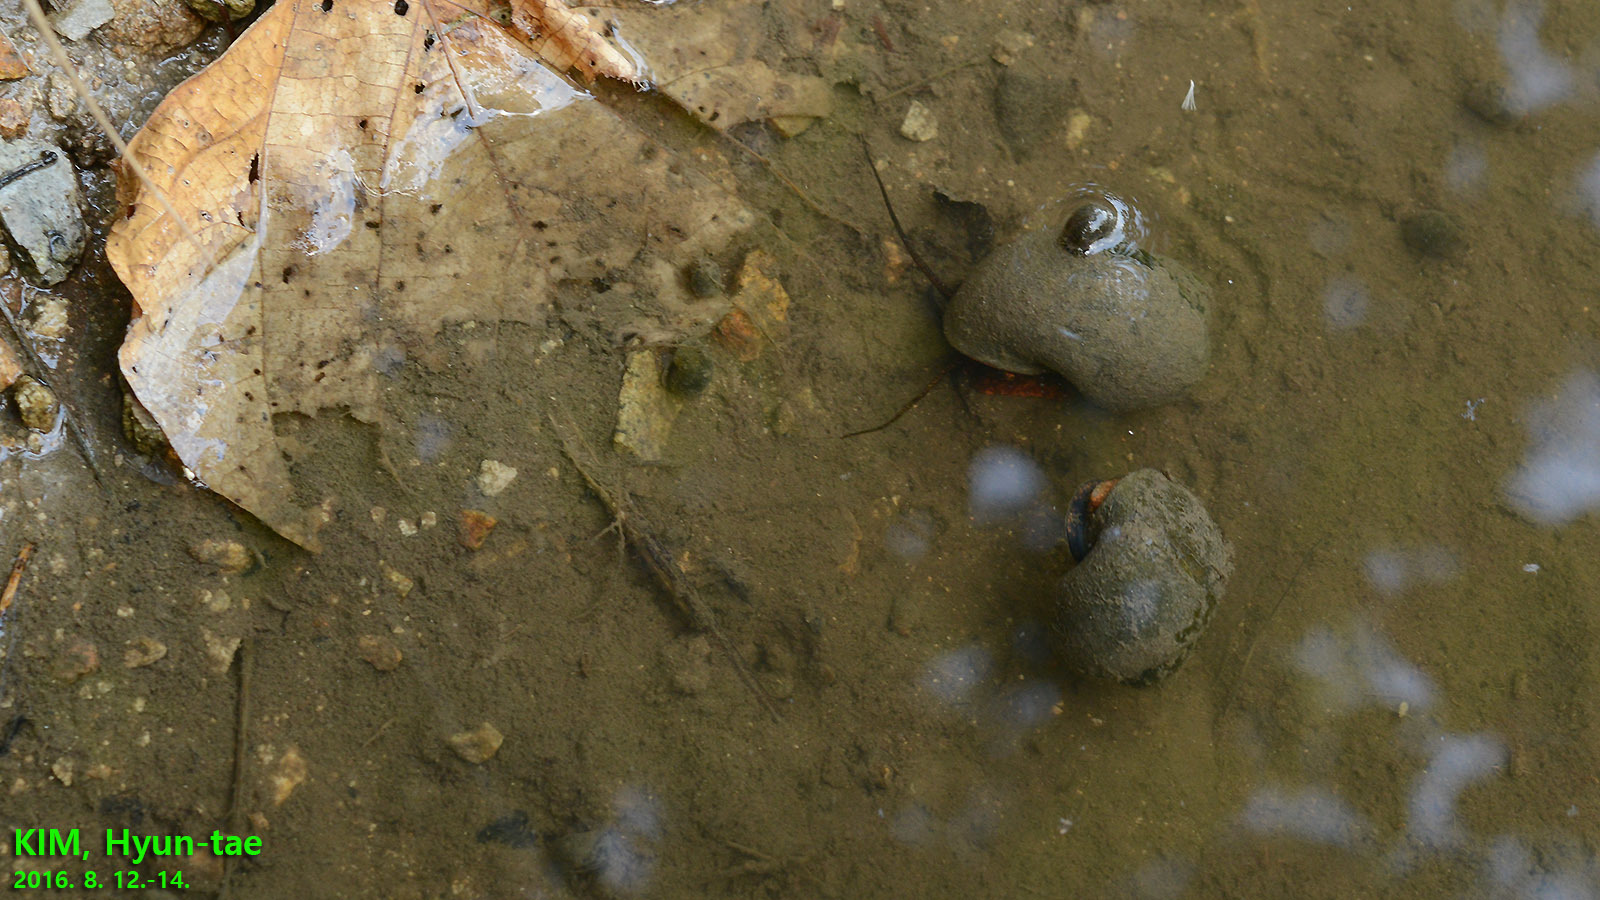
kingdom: Animalia
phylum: Mollusca
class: Gastropoda
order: Architaenioglossa
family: Ampullariidae
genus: Pomacea
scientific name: Pomacea canaliculata
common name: Channeled applesnail
